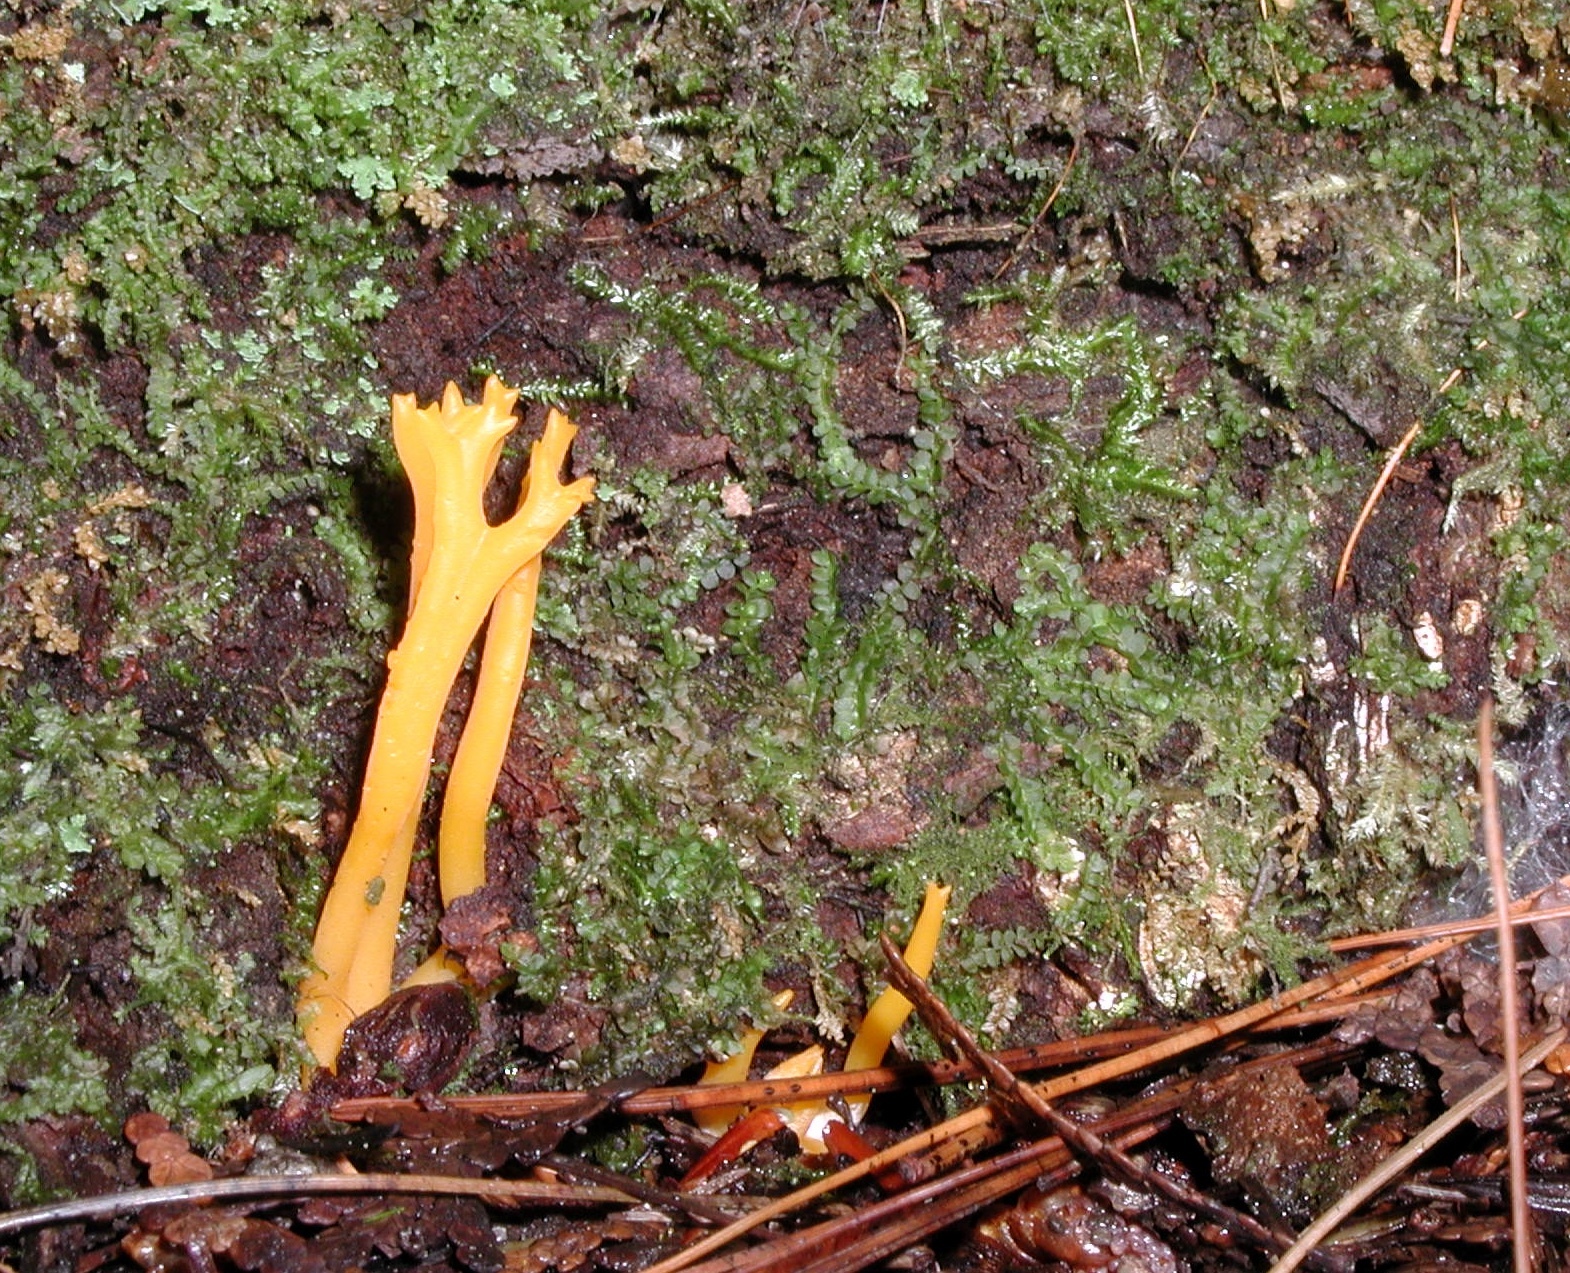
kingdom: Fungi
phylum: Basidiomycota
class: Dacrymycetes
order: Dacrymycetales
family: Dacrymycetaceae
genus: Calocera
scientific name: Calocera viscosa
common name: Yellow stagshorn
